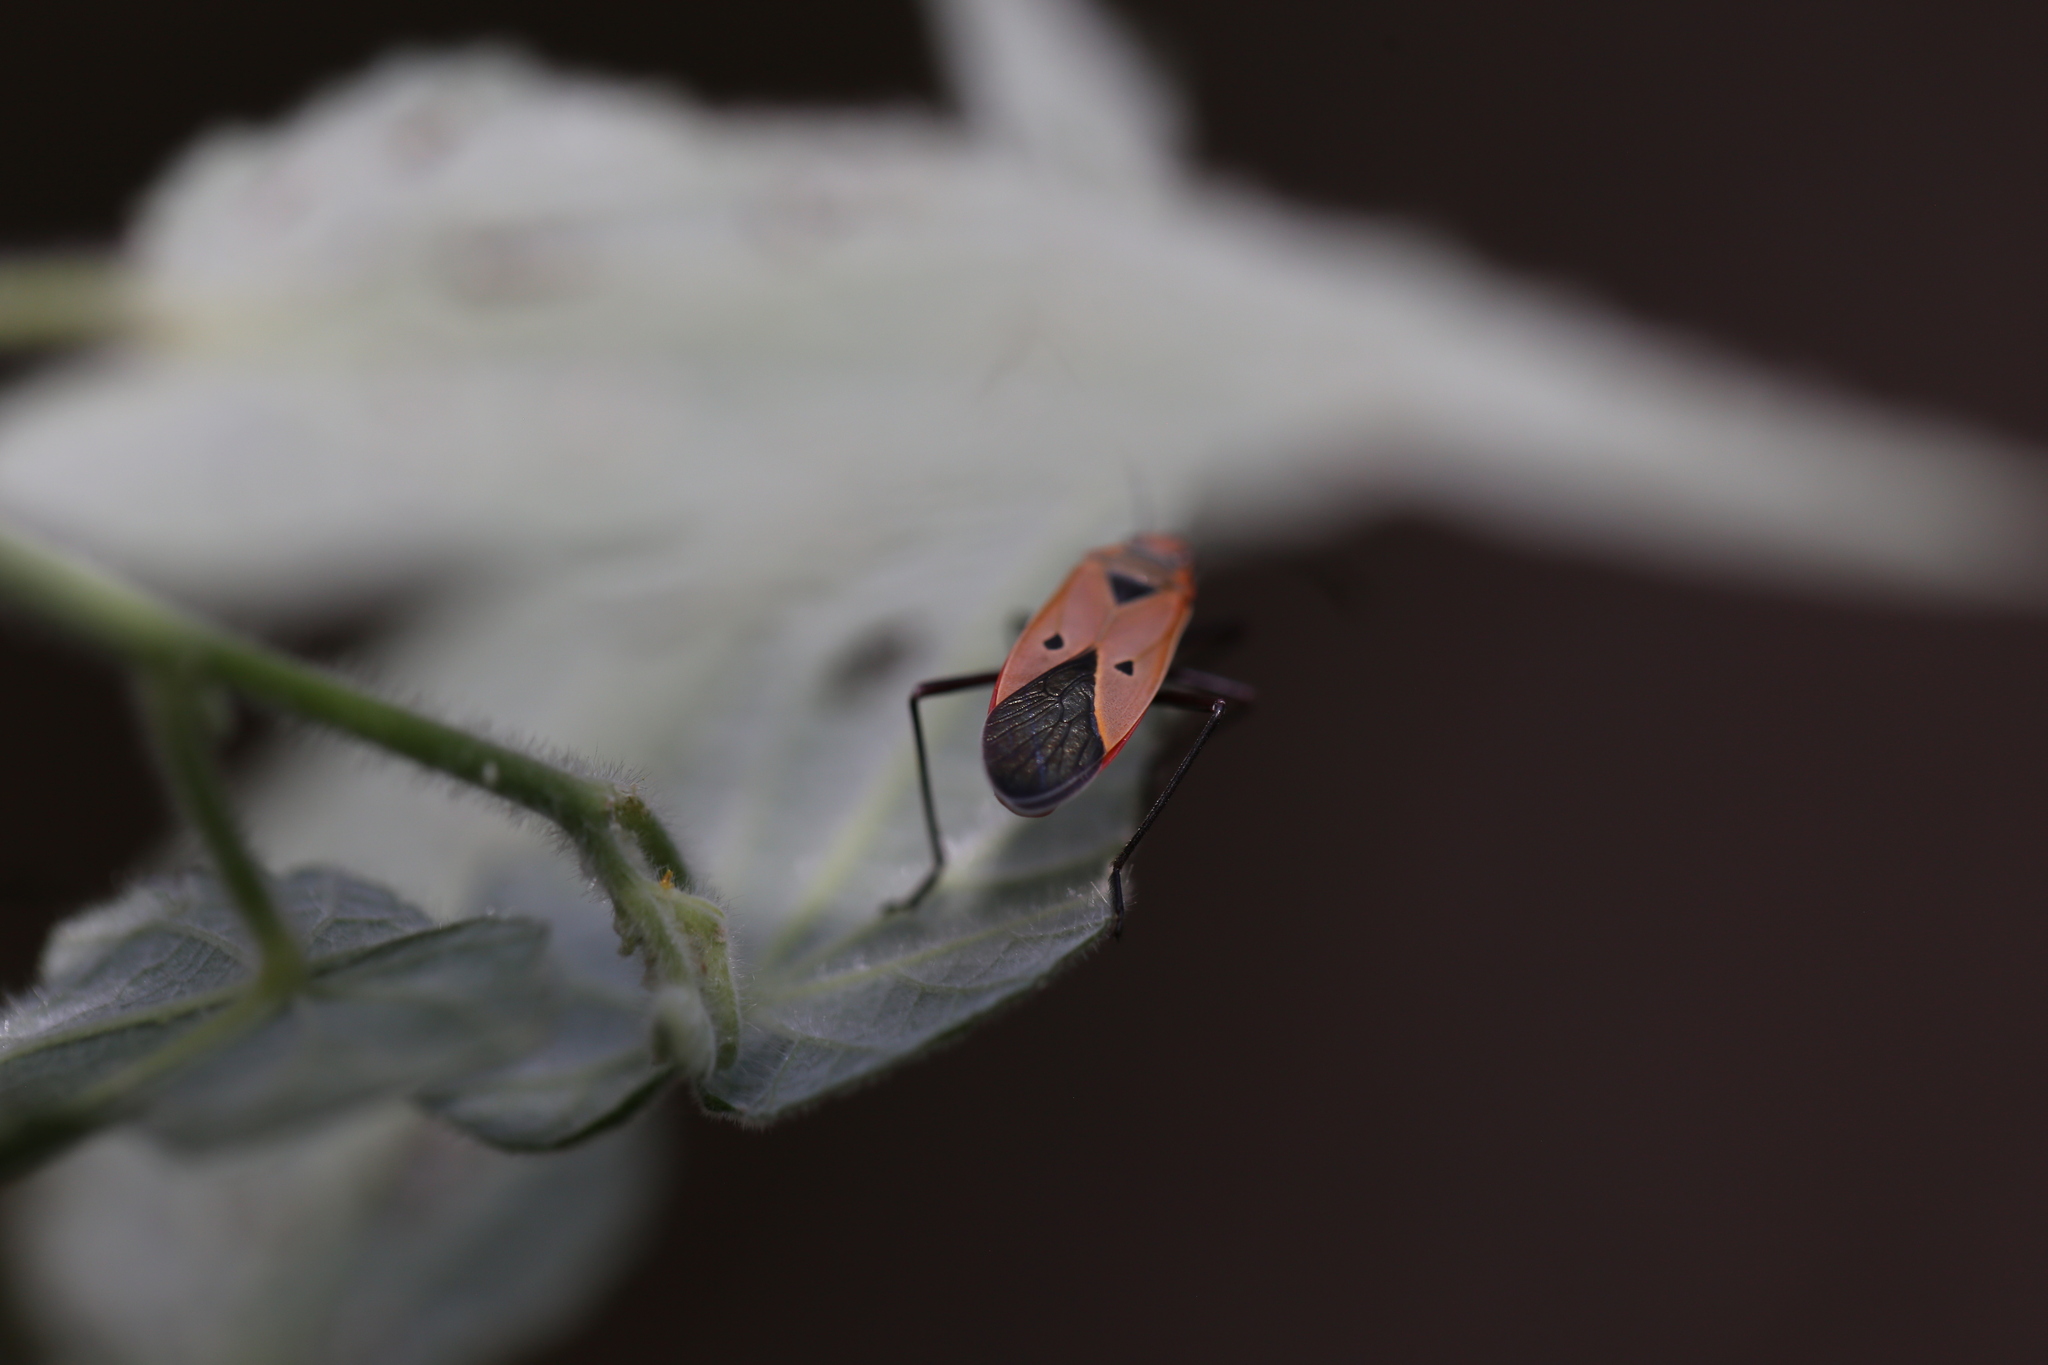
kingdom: Animalia
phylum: Arthropoda
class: Insecta
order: Hemiptera
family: Pyrrhocoridae
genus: Dysdercus
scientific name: Dysdercus sidae
